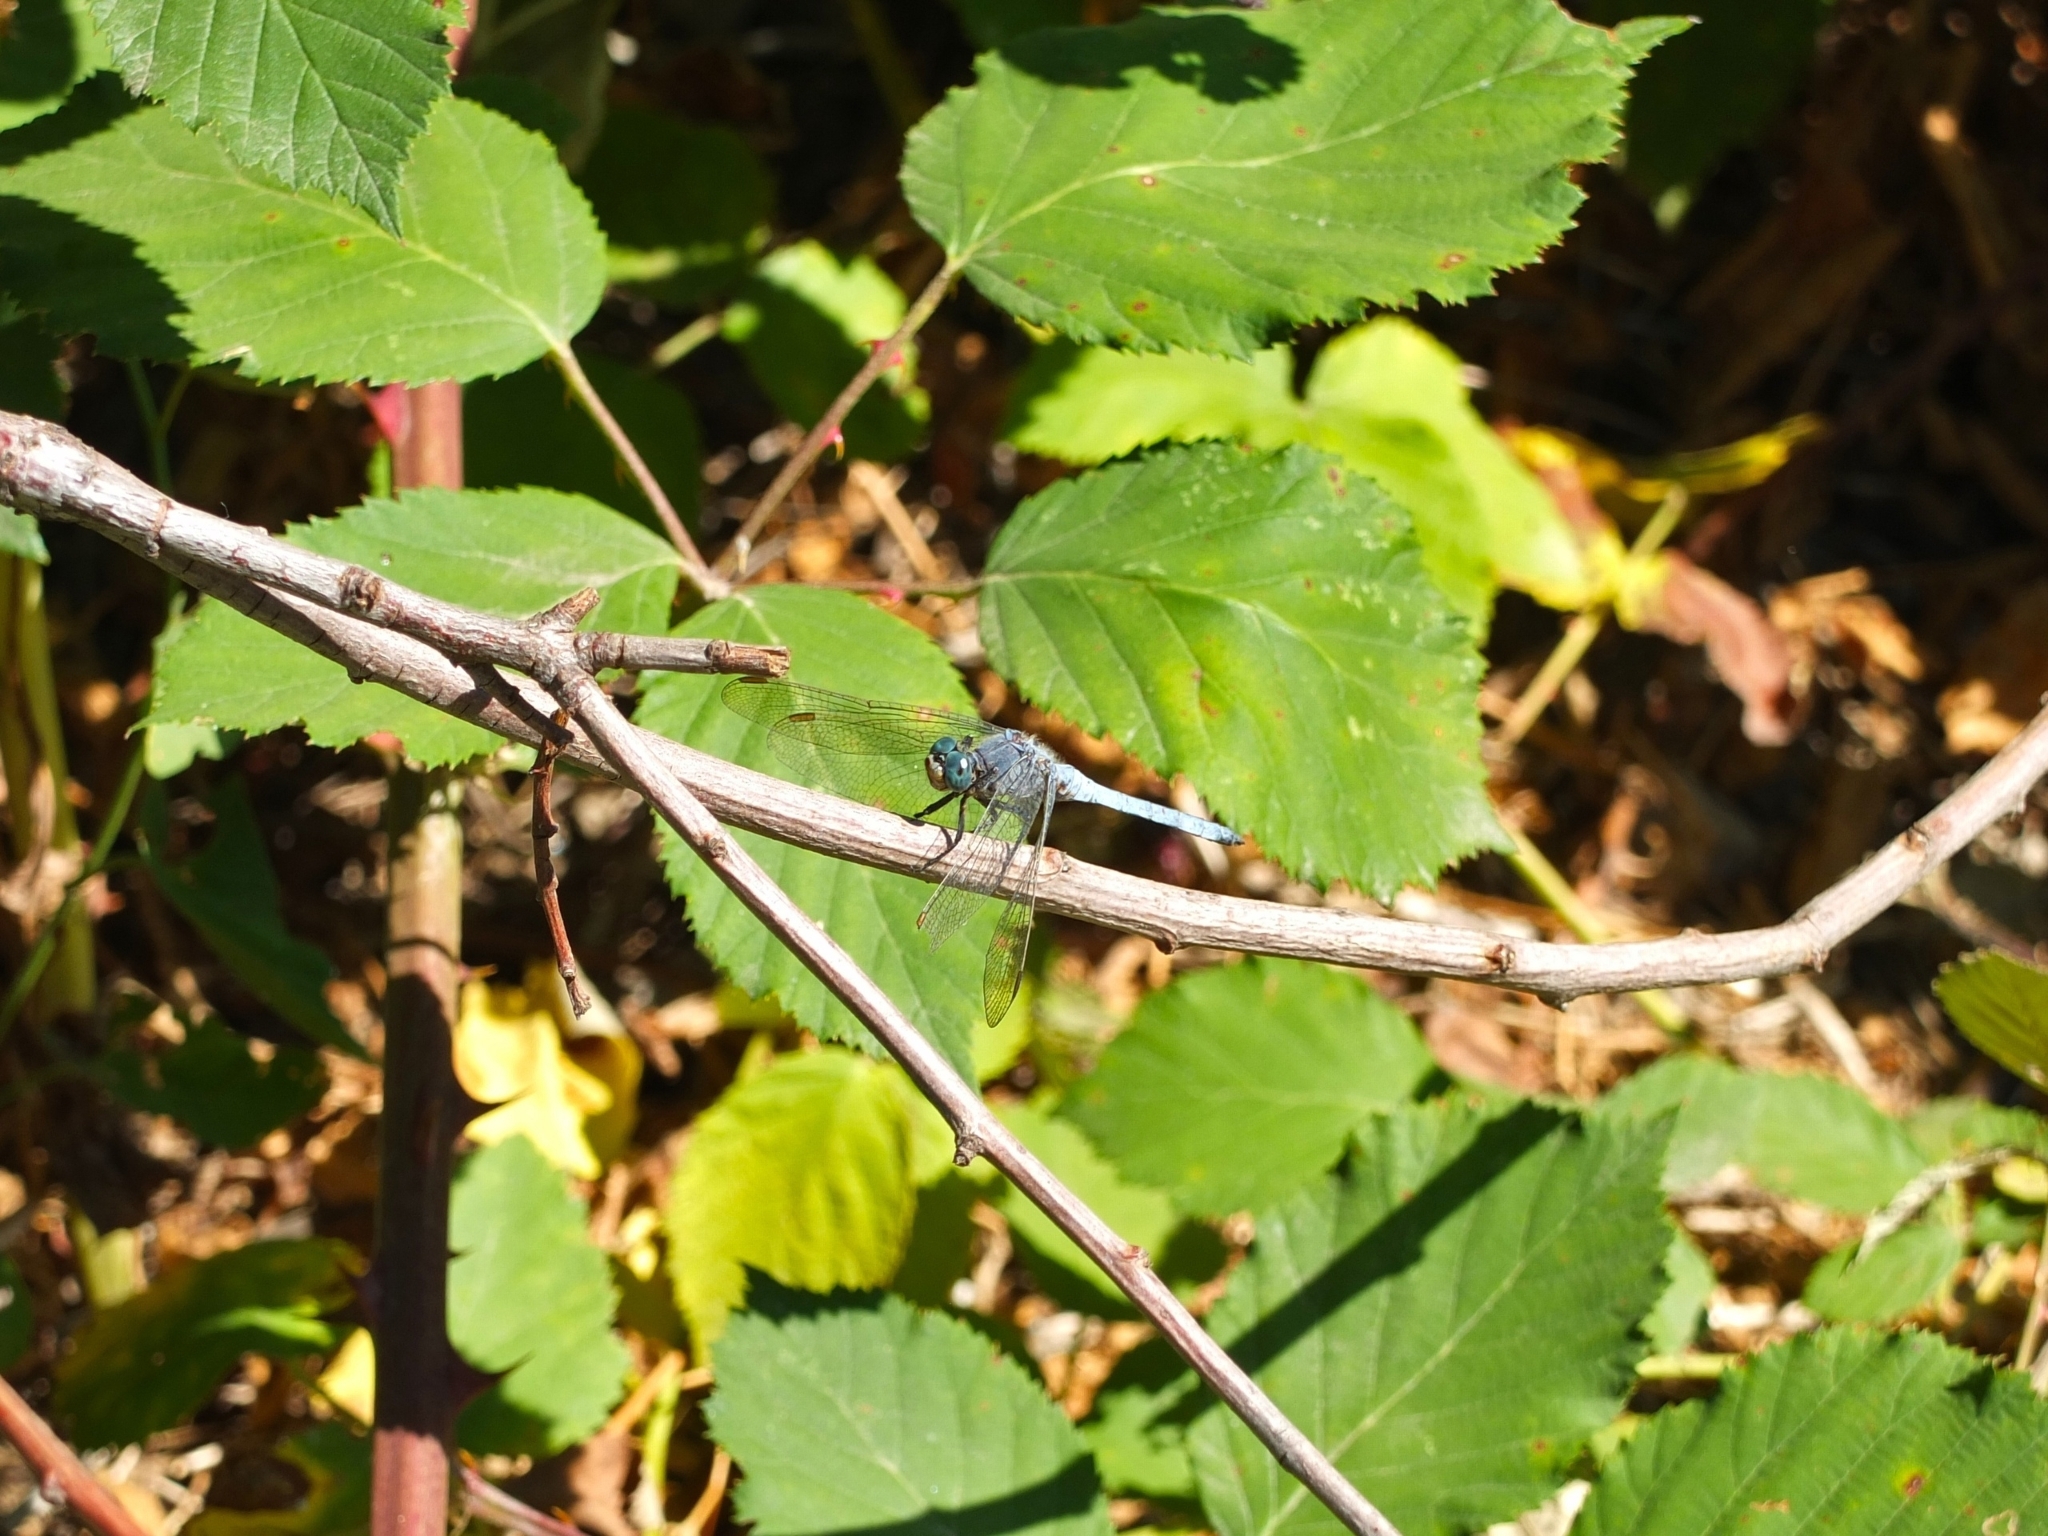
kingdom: Animalia
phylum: Arthropoda
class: Insecta
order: Odonata
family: Libellulidae
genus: Orthetrum
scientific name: Orthetrum coerulescens
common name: Keeled skimmer
